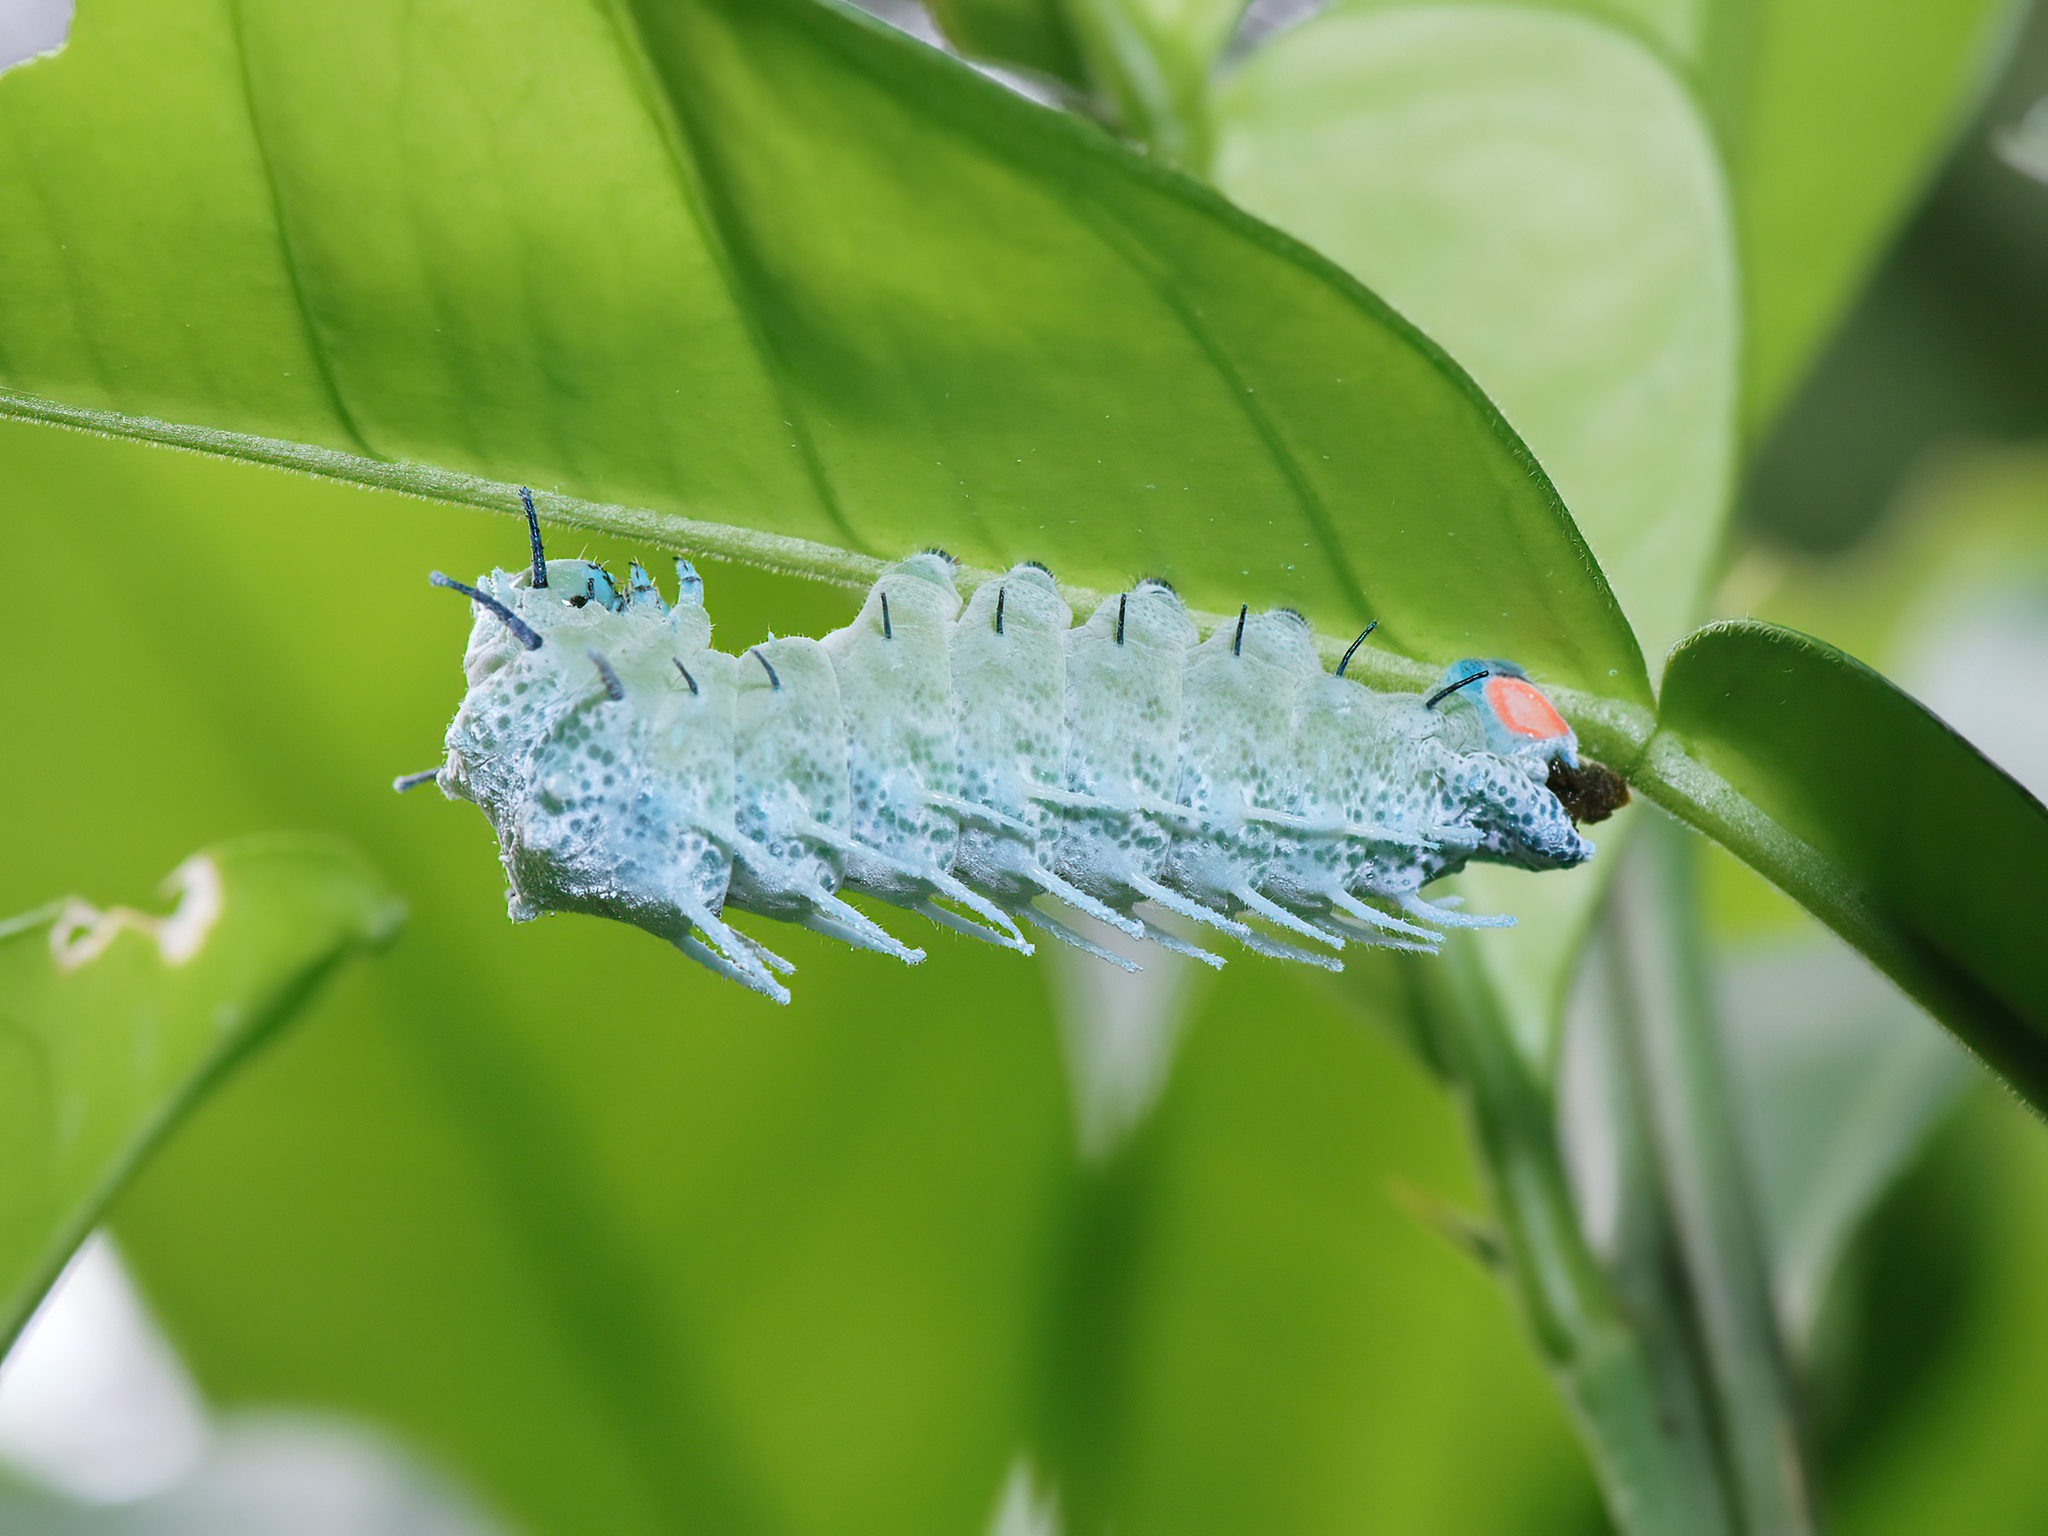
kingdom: Animalia
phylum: Arthropoda
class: Insecta
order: Lepidoptera
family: Saturniidae
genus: Attacus
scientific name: Attacus atlas
